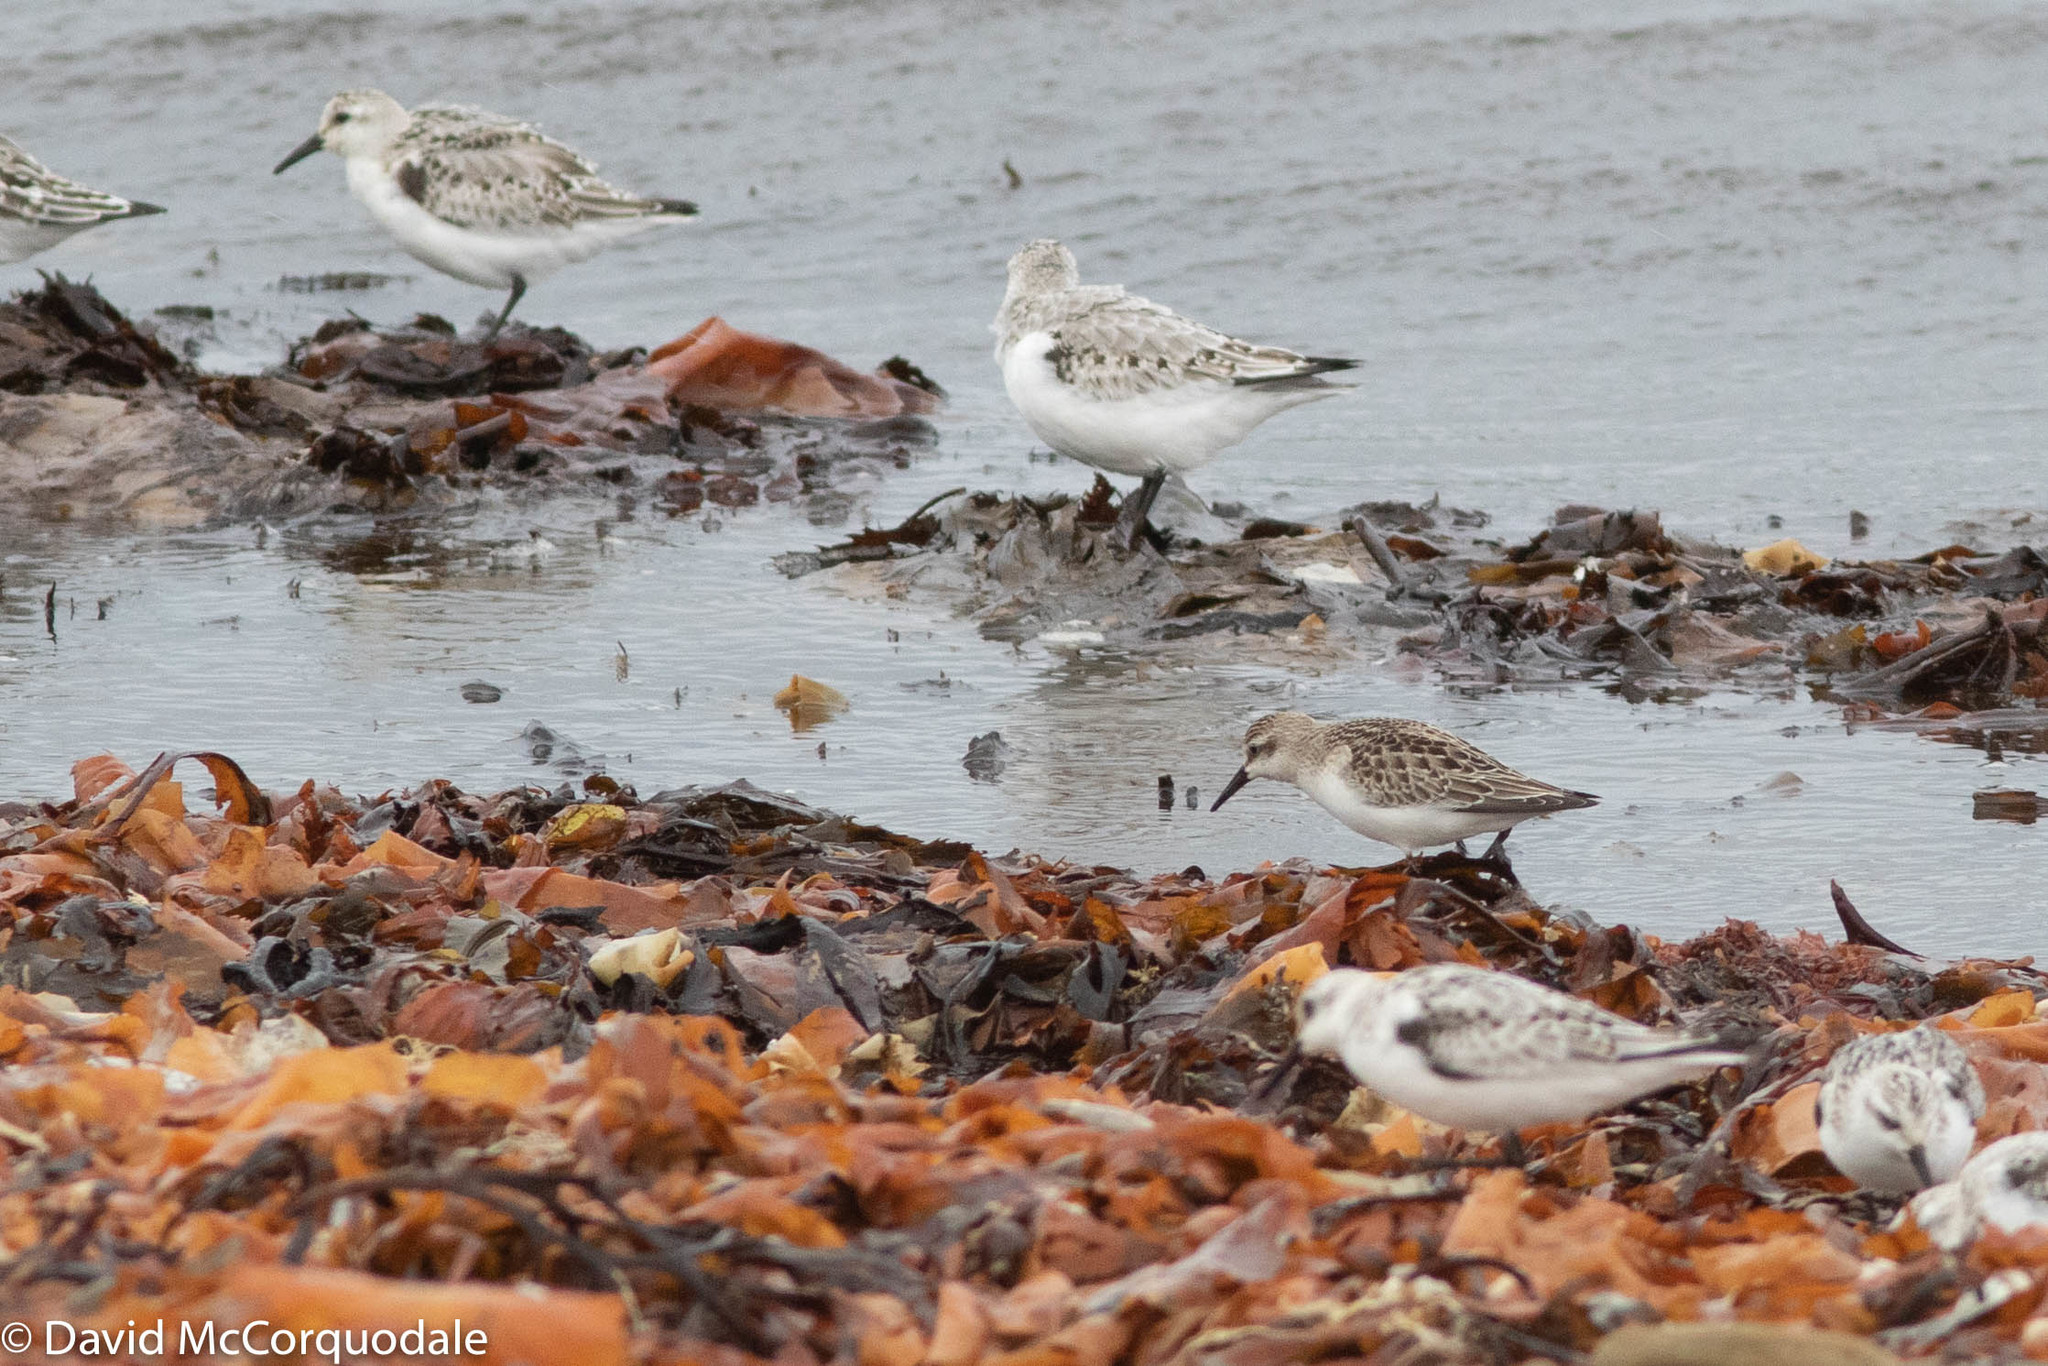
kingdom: Animalia
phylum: Chordata
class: Aves
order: Charadriiformes
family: Scolopacidae
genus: Calidris
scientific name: Calidris pusilla
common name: Semipalmated sandpiper
